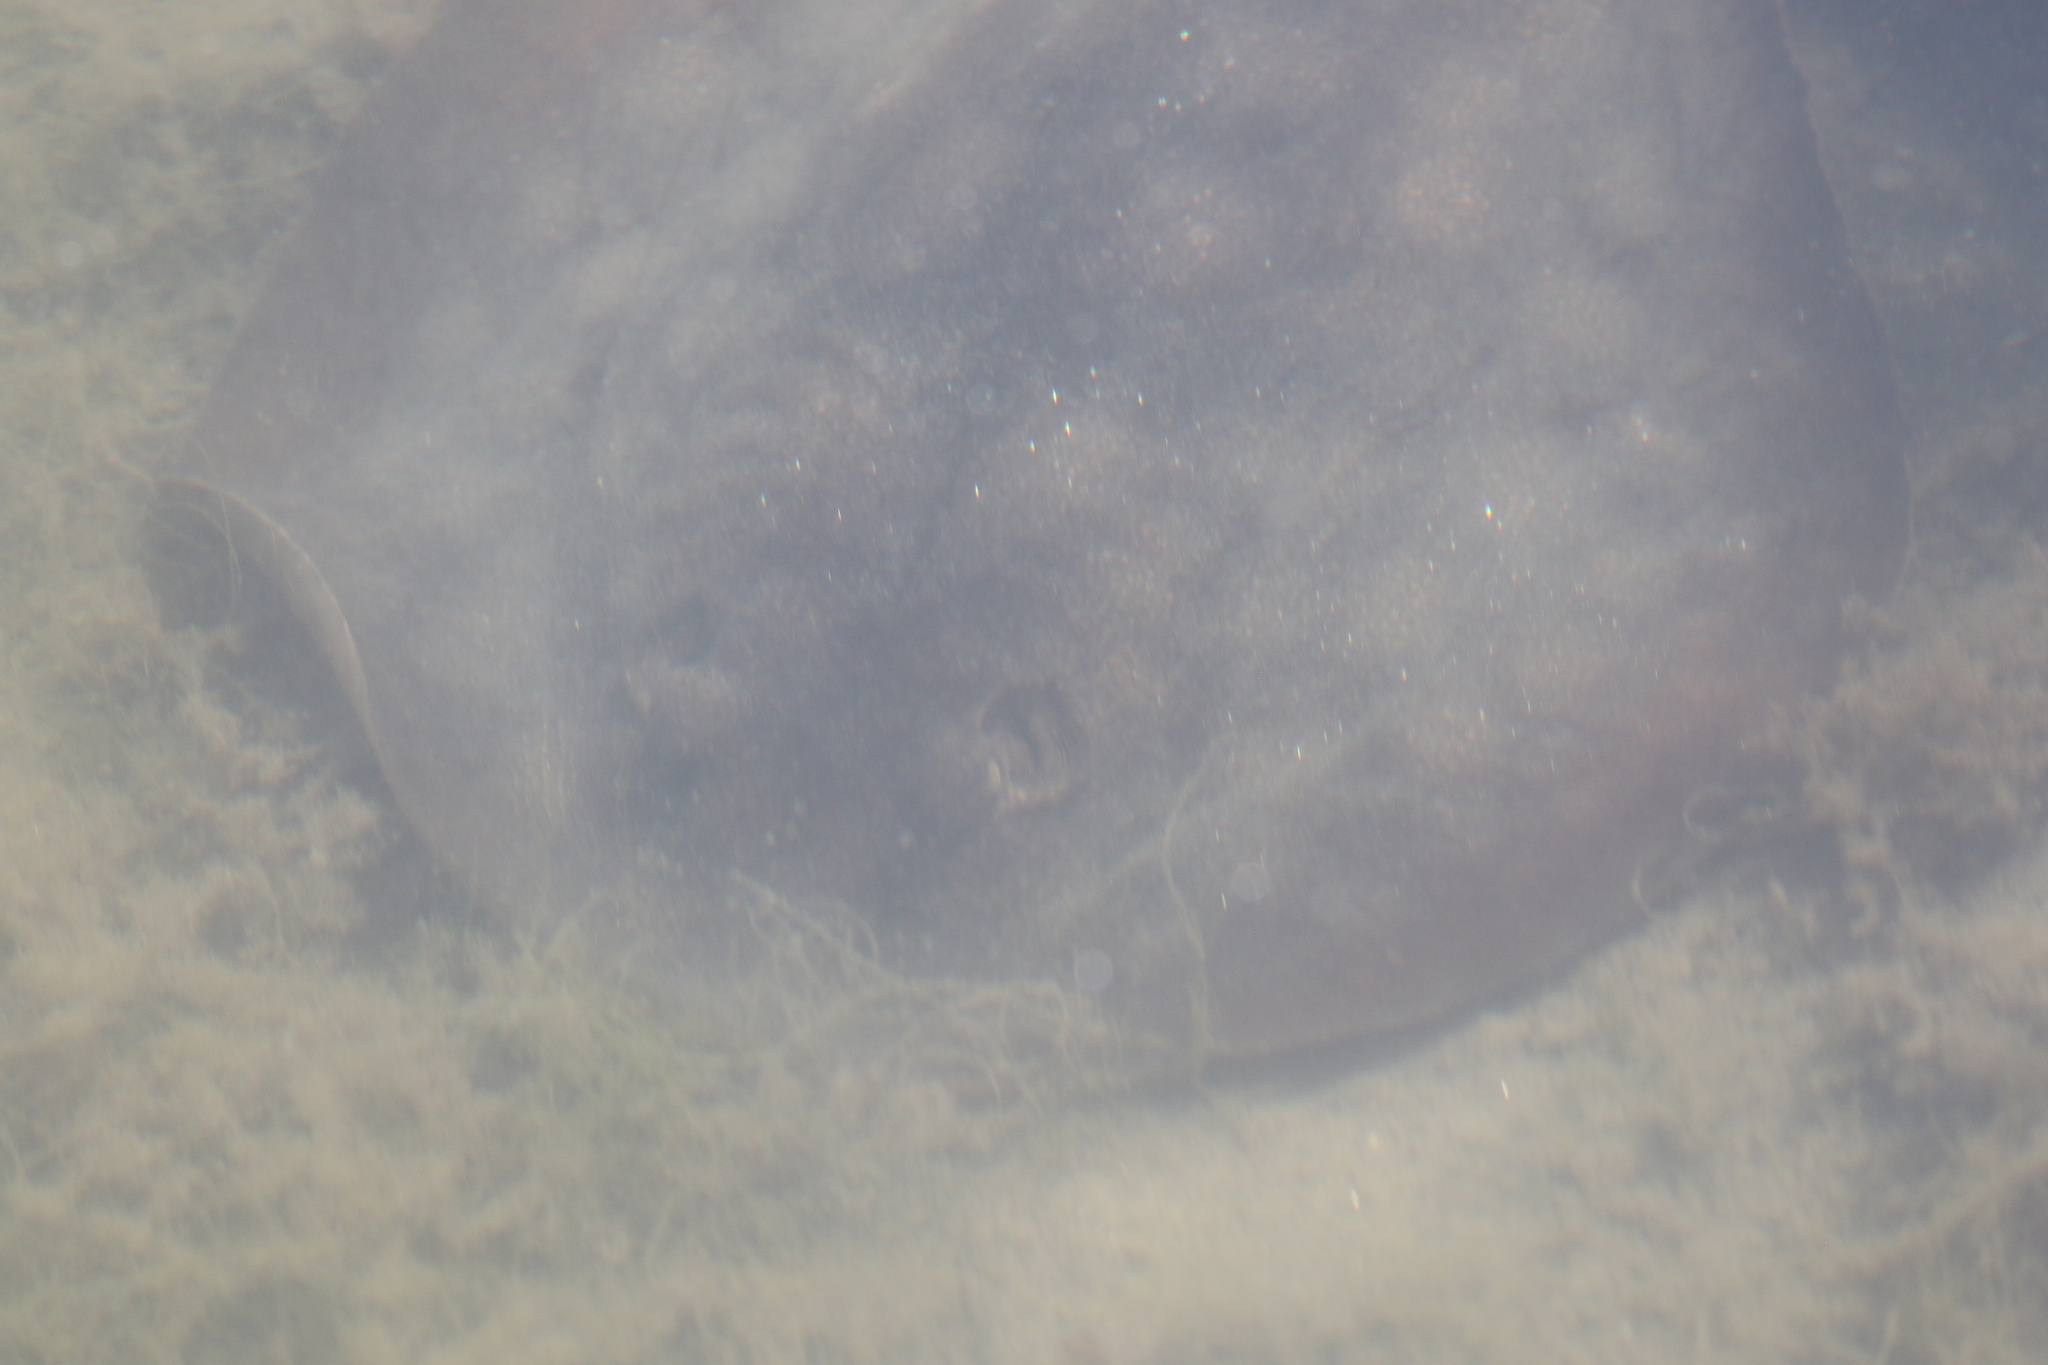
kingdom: Animalia
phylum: Chordata
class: Elasmobranchii
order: Myliobatiformes
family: Urolophidae
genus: Urolophus
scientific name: Urolophus halleri
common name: Round stingray
